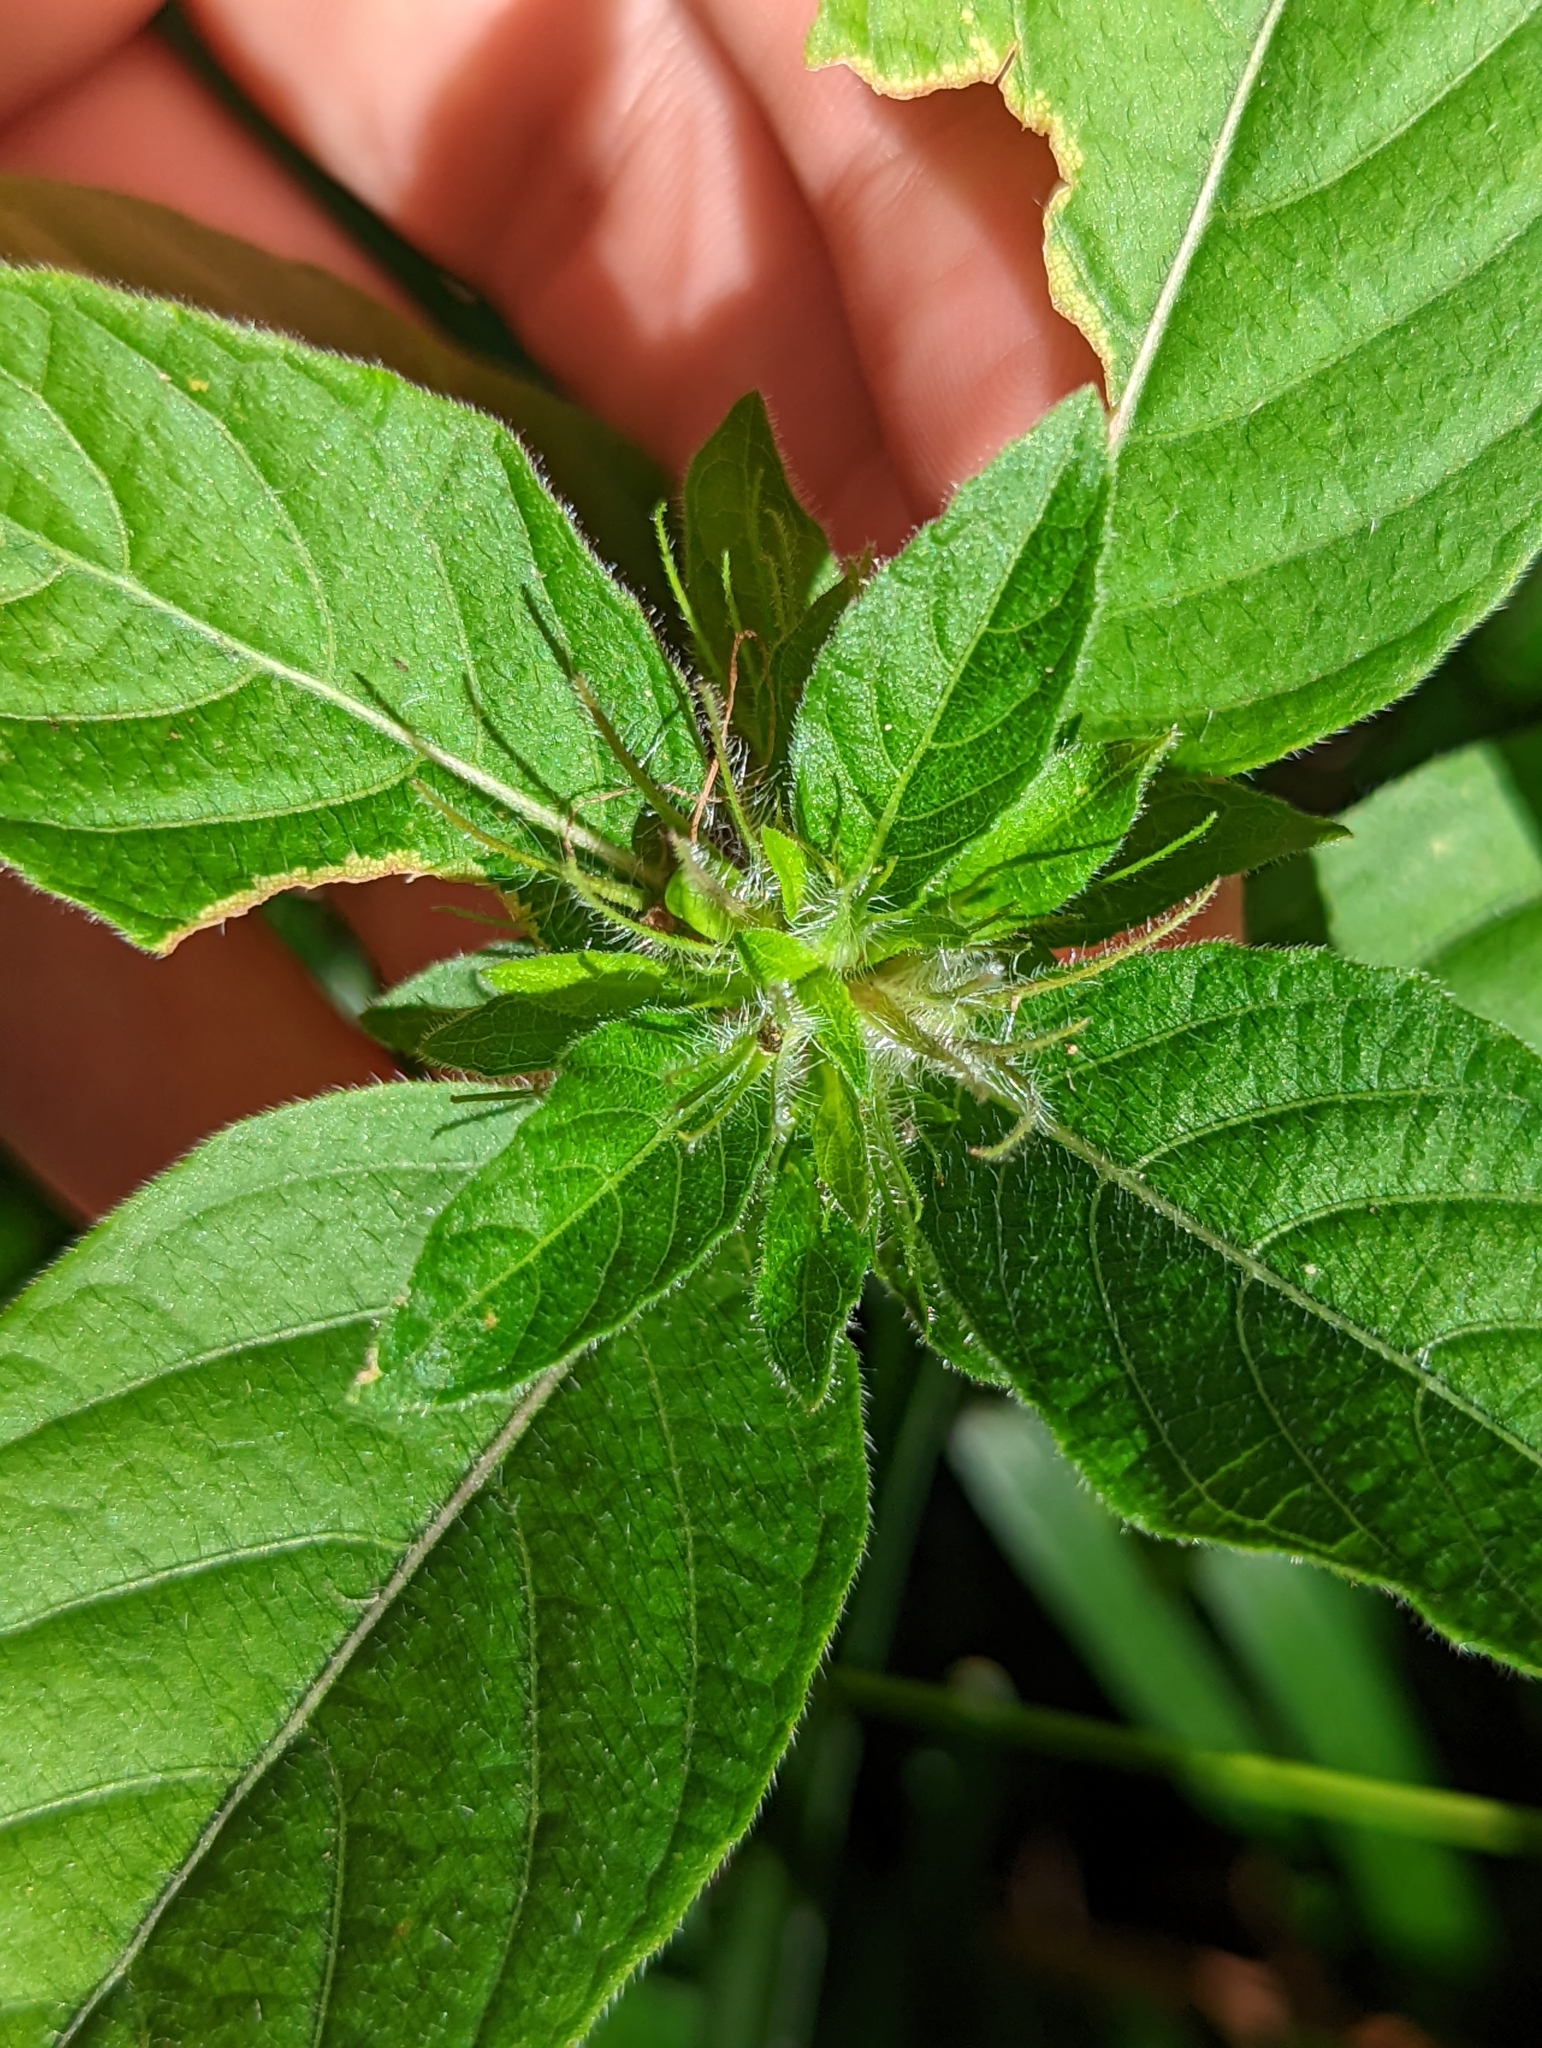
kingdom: Plantae
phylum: Tracheophyta
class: Magnoliopsida
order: Lamiales
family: Acanthaceae
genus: Ruellia
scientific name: Ruellia caroliniensis
